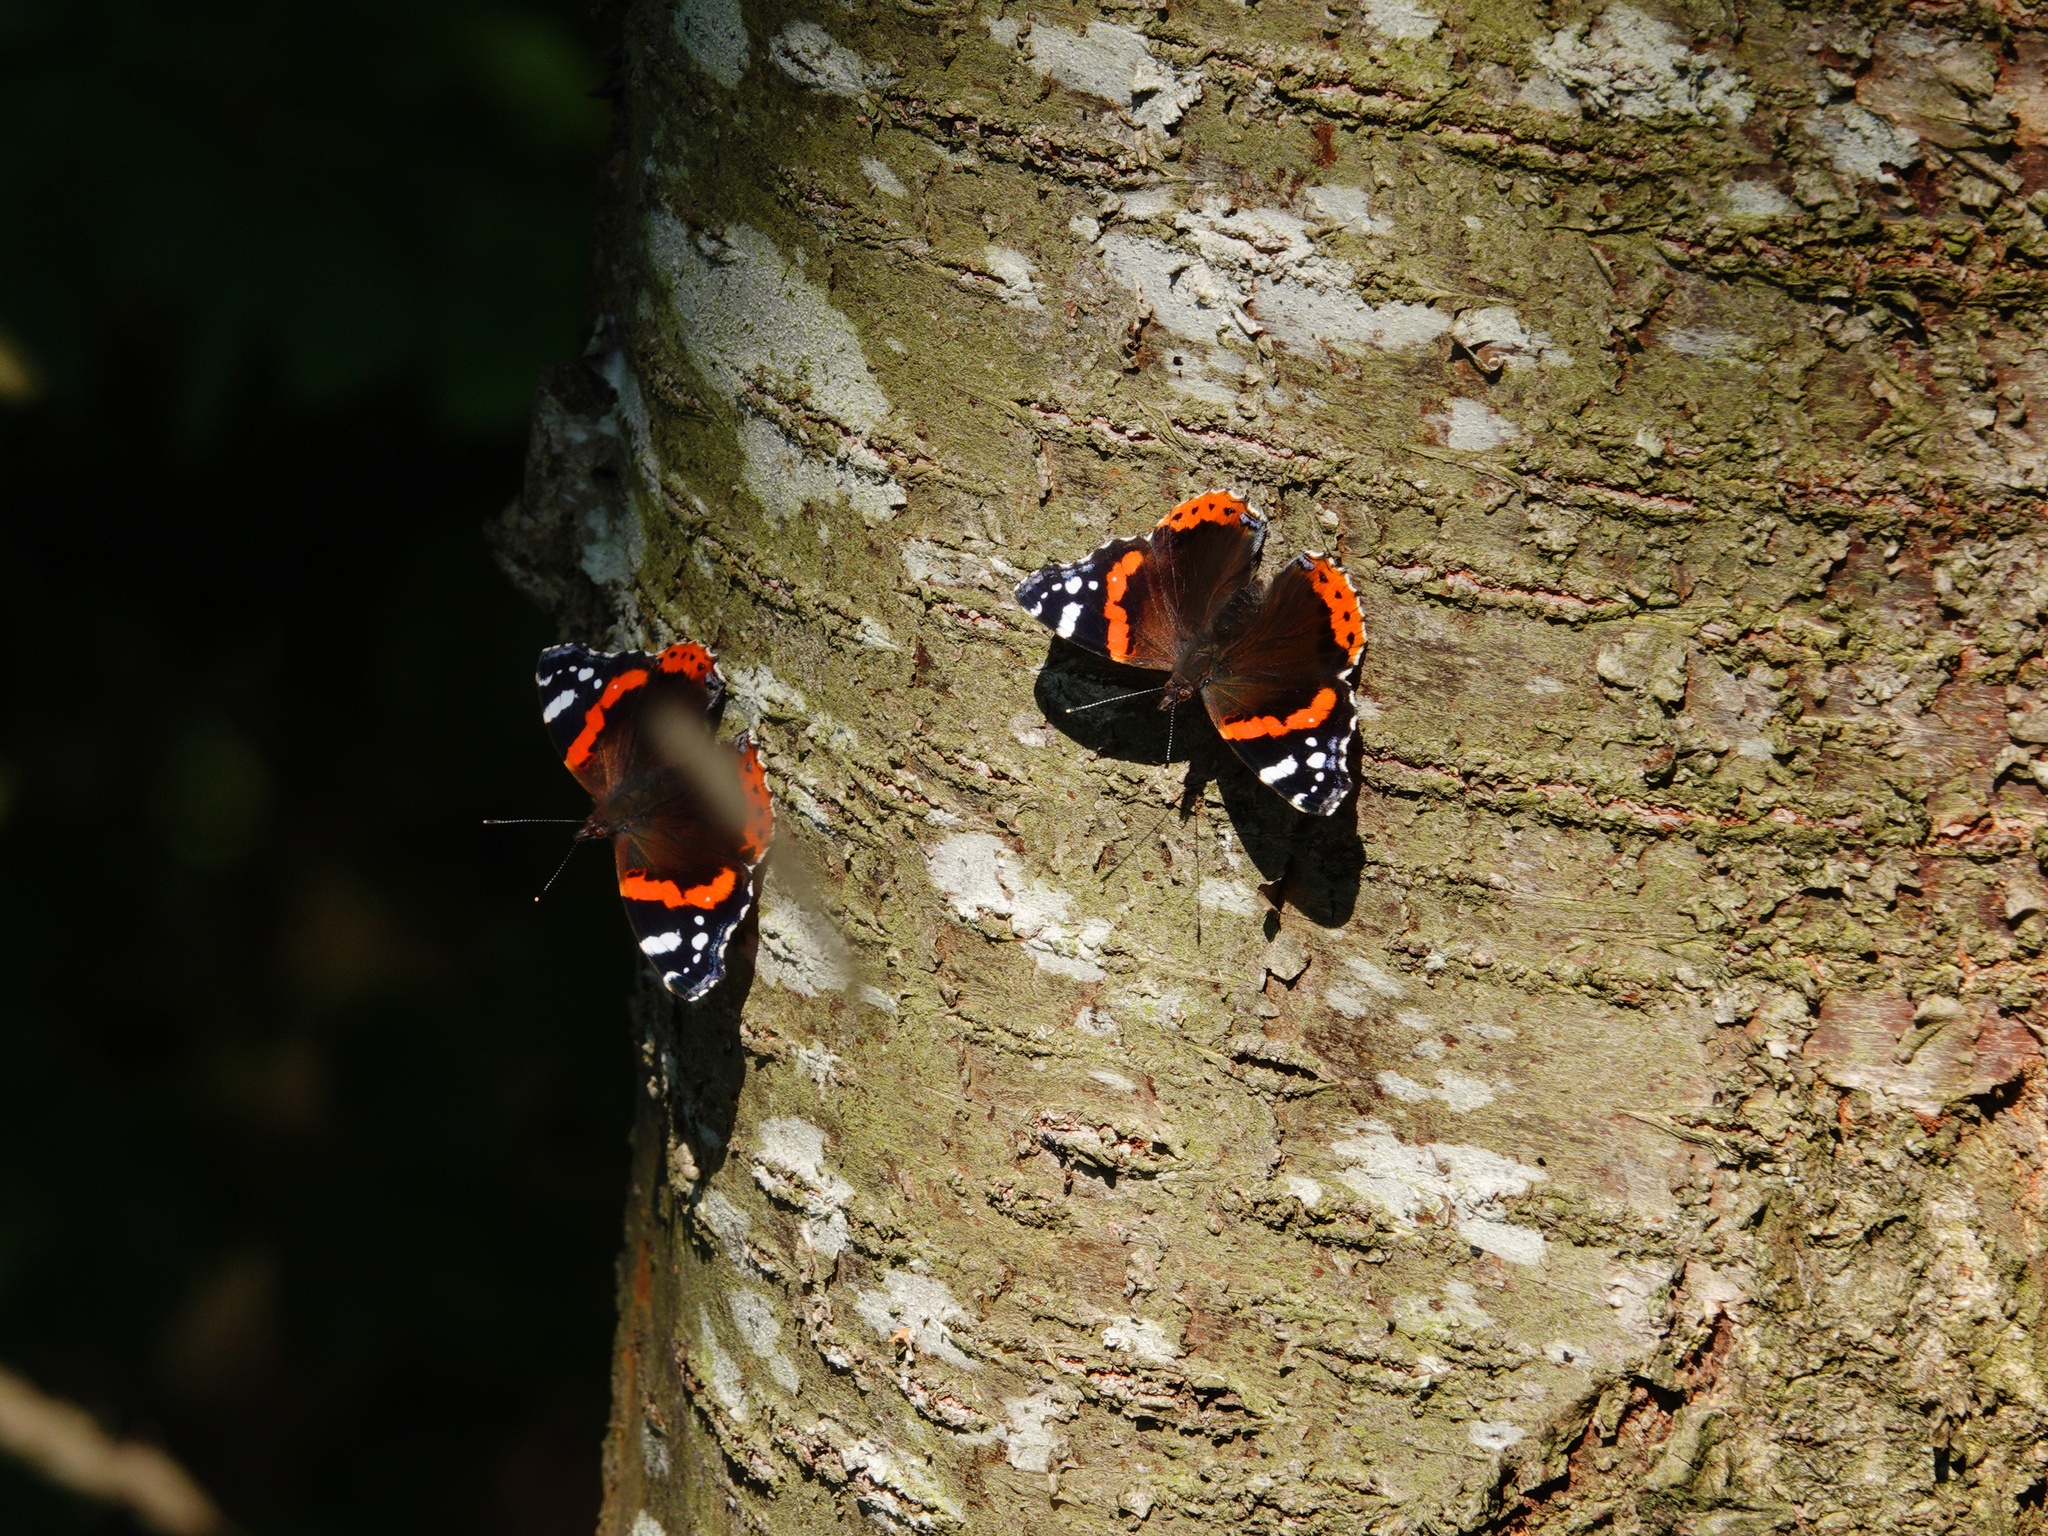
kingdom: Animalia
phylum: Arthropoda
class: Insecta
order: Lepidoptera
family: Nymphalidae
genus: Vanessa
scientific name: Vanessa atalanta
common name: Red admiral
